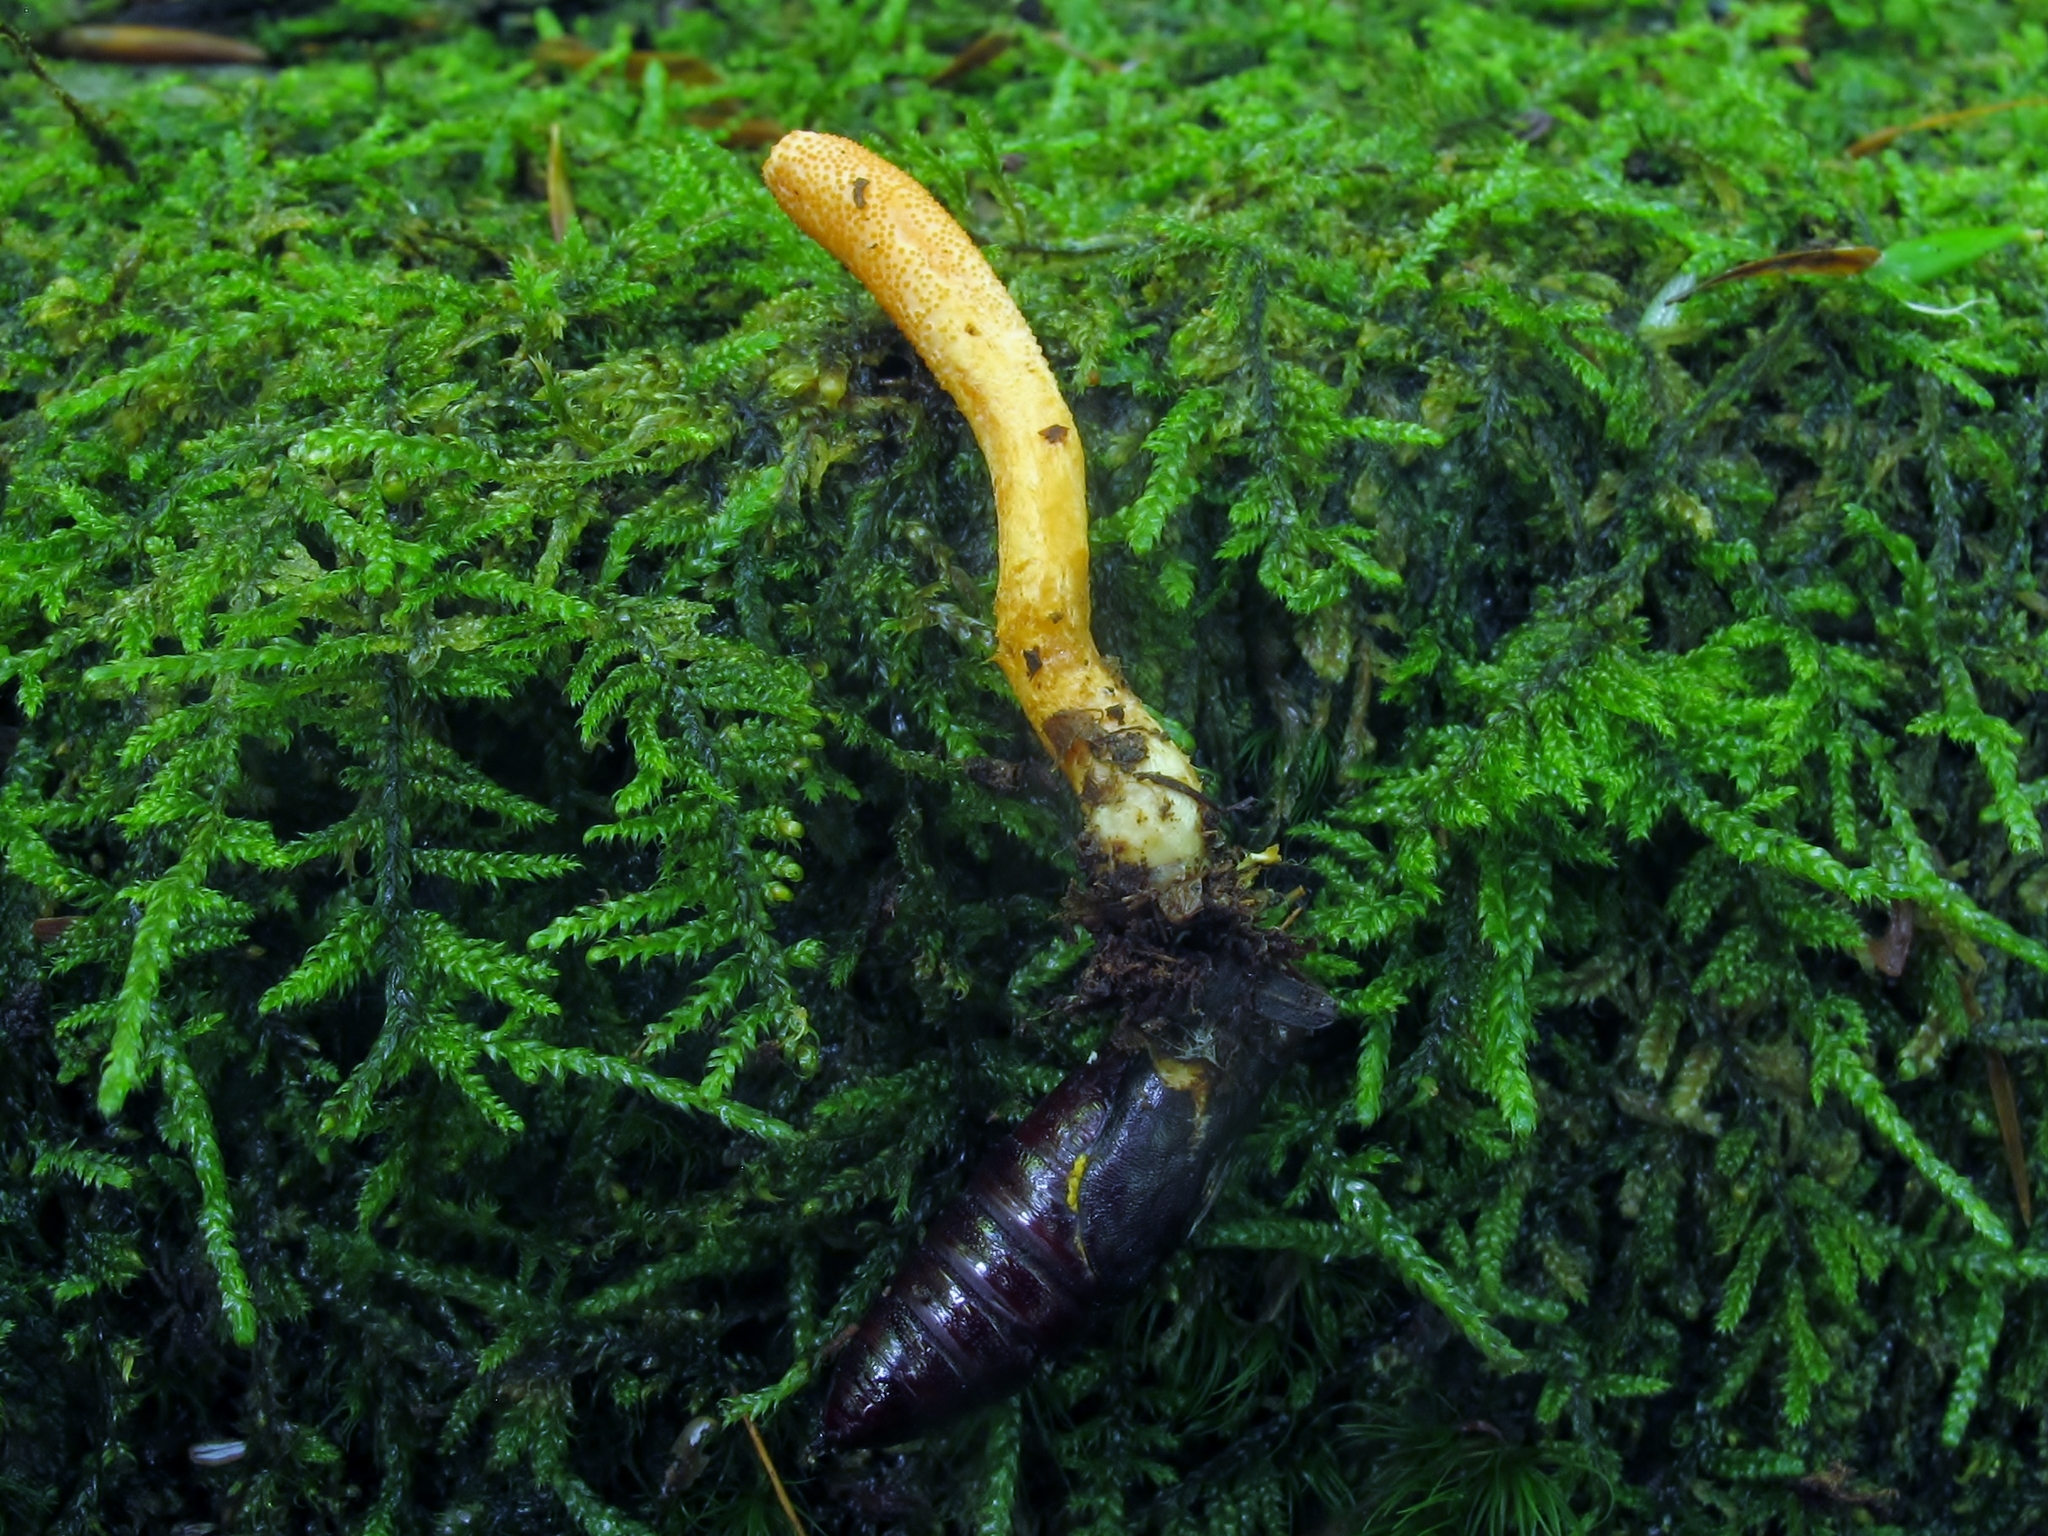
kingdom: Fungi
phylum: Ascomycota
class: Sordariomycetes
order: Hypocreales
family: Cordycipitaceae
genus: Cordyceps
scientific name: Cordyceps militaris
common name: Scarlet caterpillar fungus
